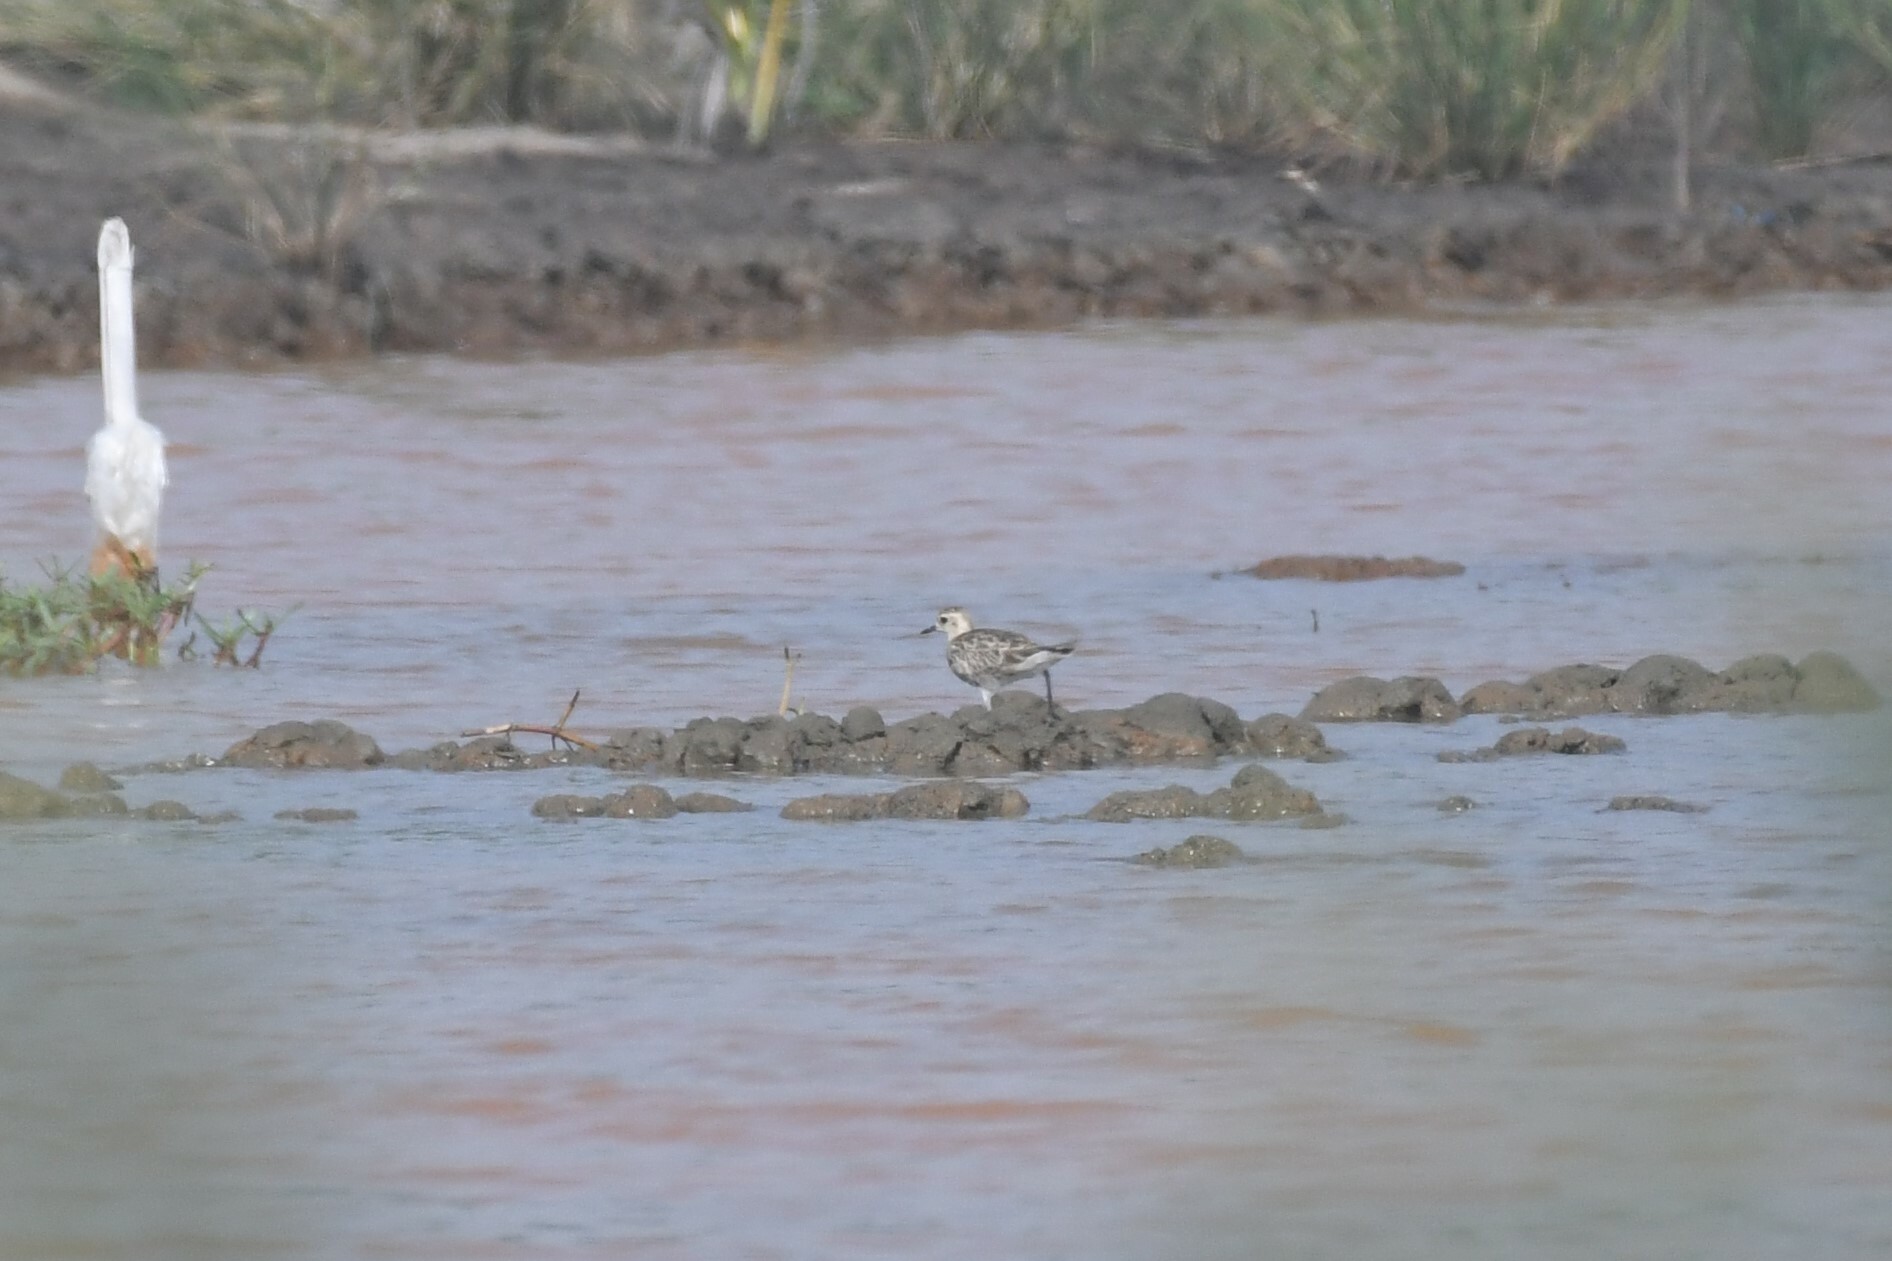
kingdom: Animalia
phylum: Chordata
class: Aves
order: Charadriiformes
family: Charadriidae
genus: Pluvialis
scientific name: Pluvialis fulva
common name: Pacific golden plover
